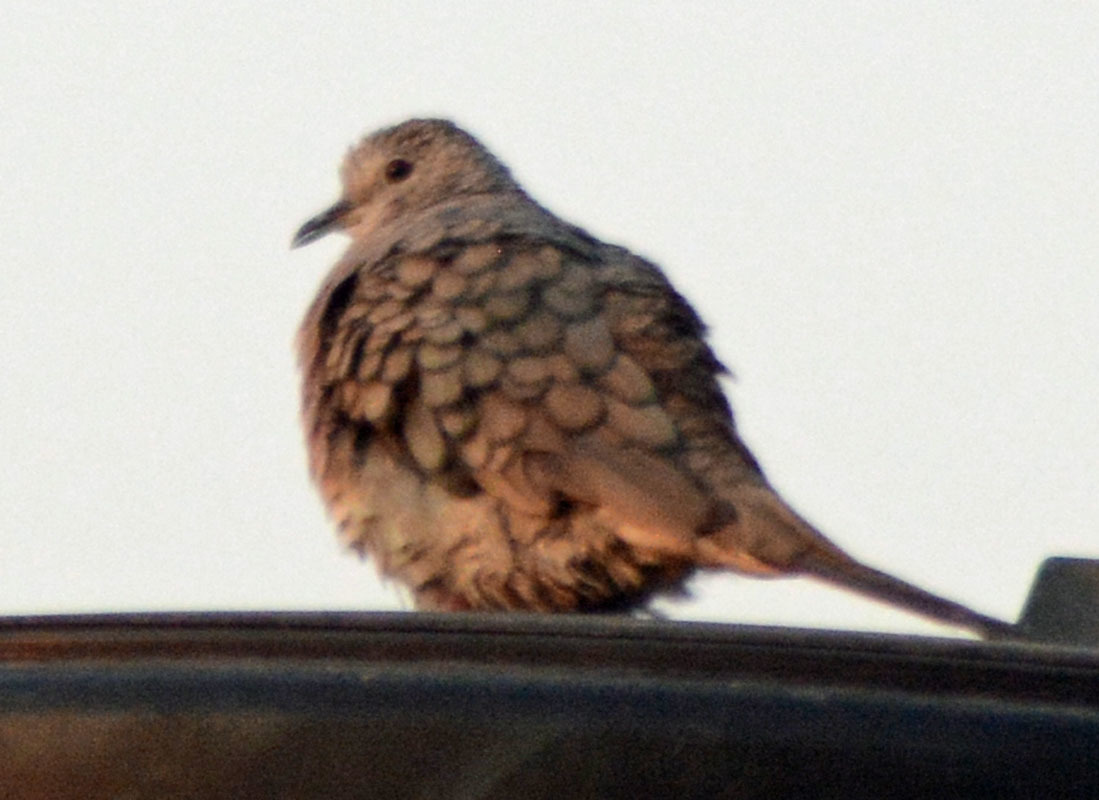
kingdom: Animalia
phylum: Chordata
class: Aves
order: Columbiformes
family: Columbidae
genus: Columbina
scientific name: Columbina inca
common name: Inca dove
